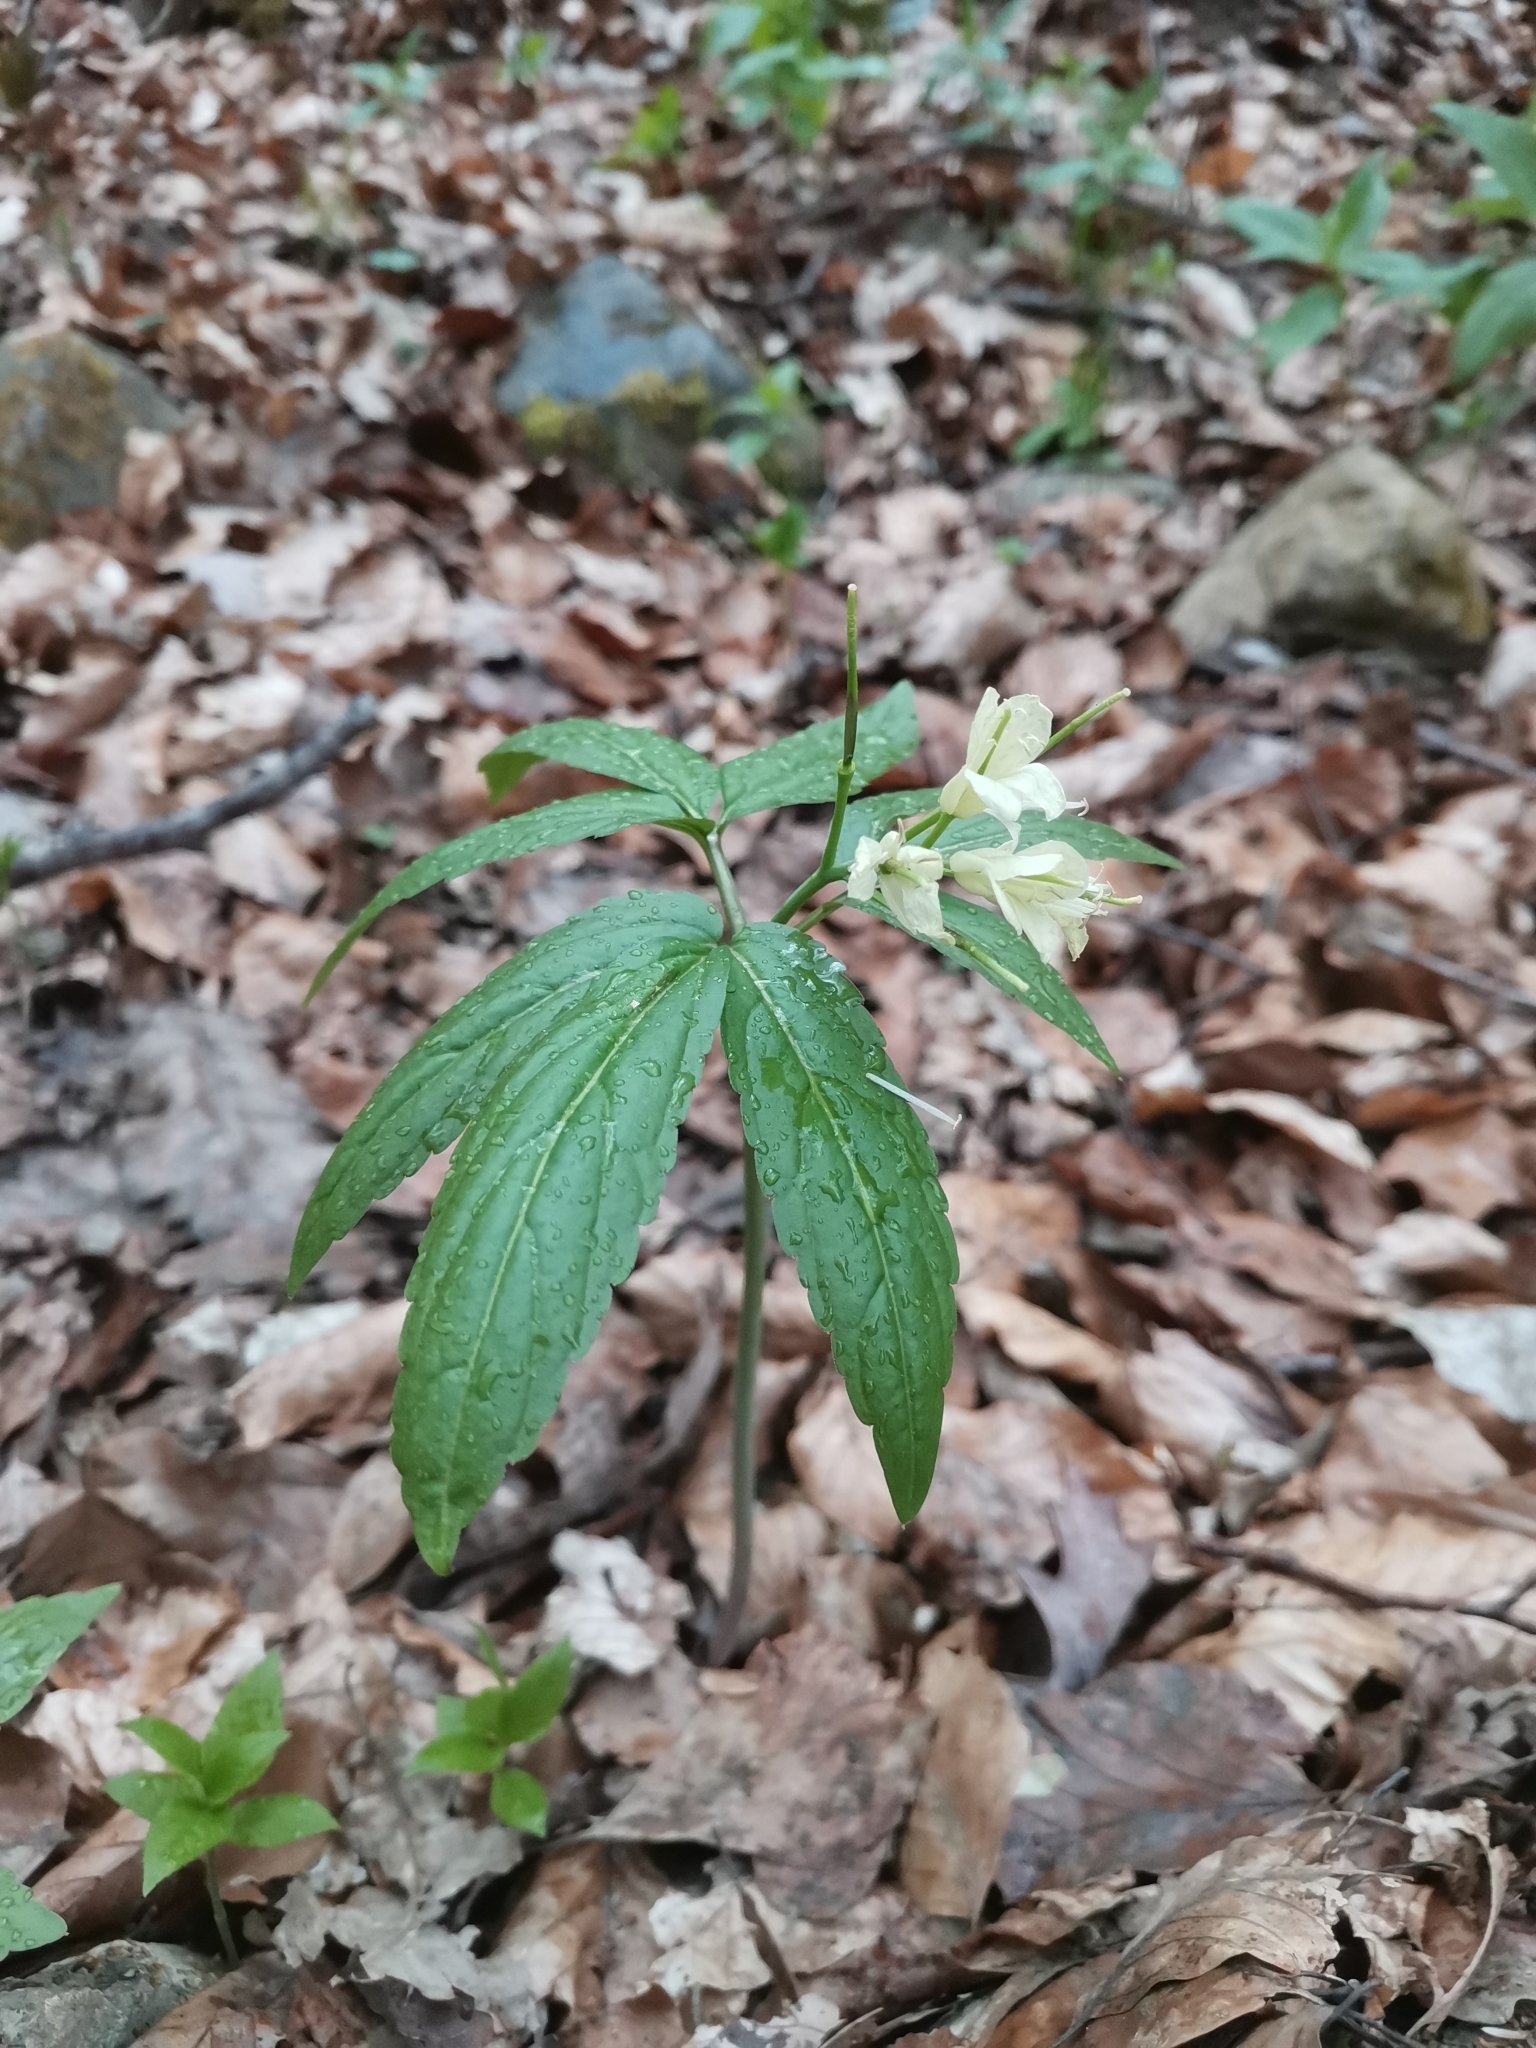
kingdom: Plantae
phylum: Tracheophyta
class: Magnoliopsida
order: Brassicales
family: Brassicaceae
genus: Cardamine
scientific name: Cardamine enneaphyllos
